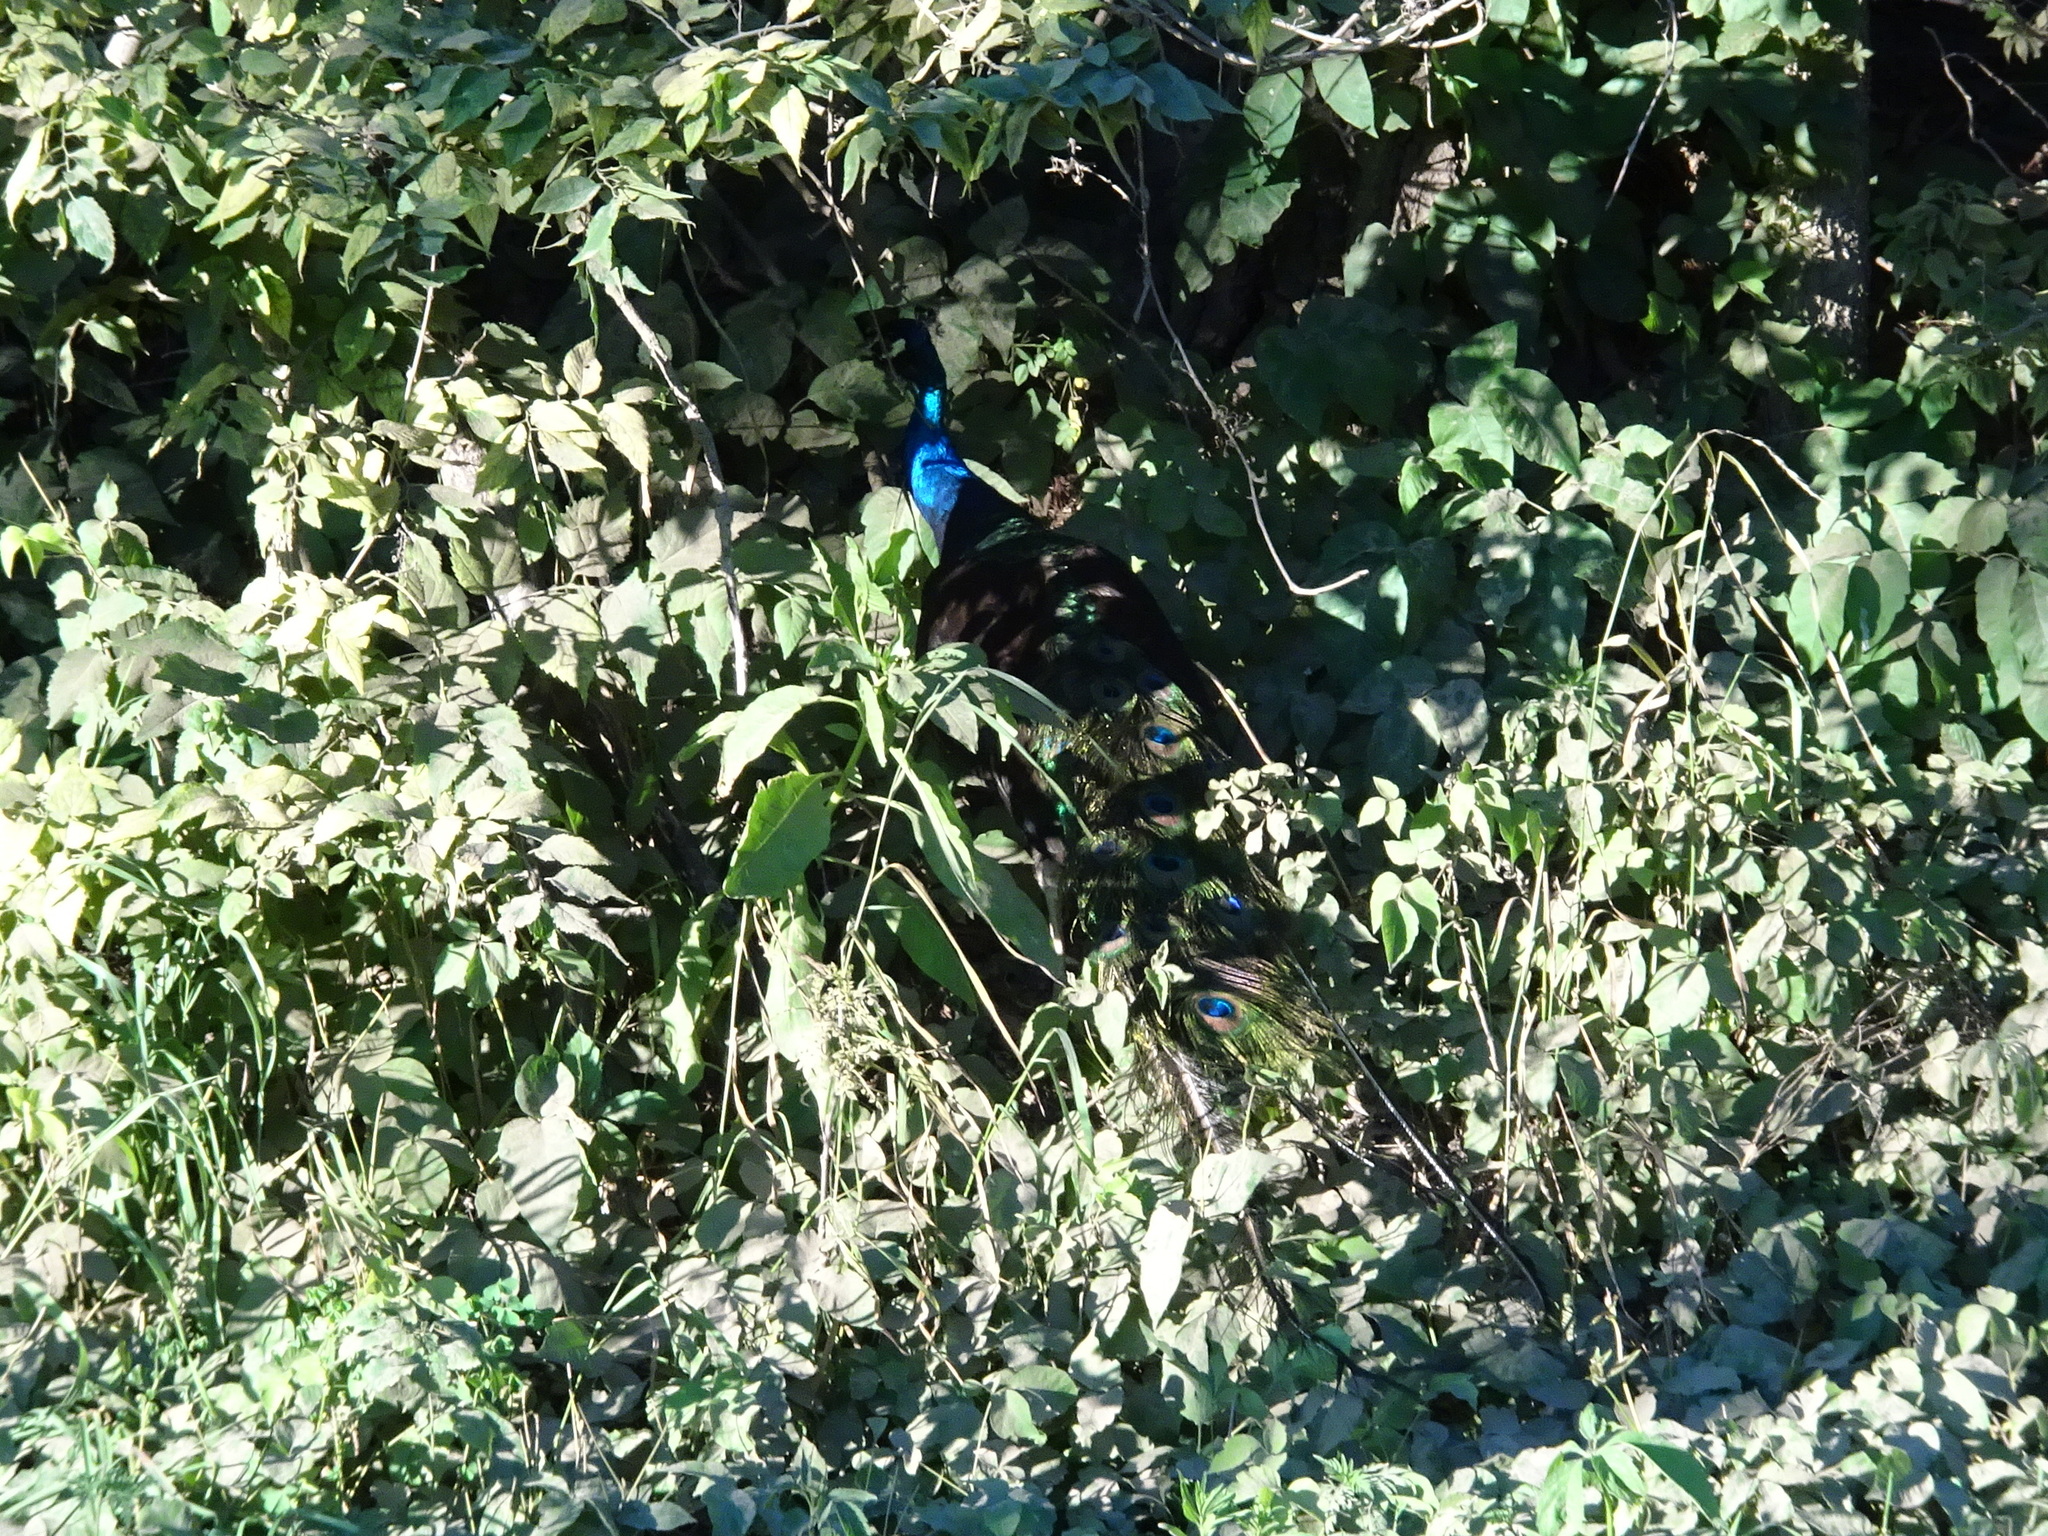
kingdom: Animalia
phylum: Chordata
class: Aves
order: Galliformes
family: Phasianidae
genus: Pavo
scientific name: Pavo cristatus
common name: Indian peafowl
